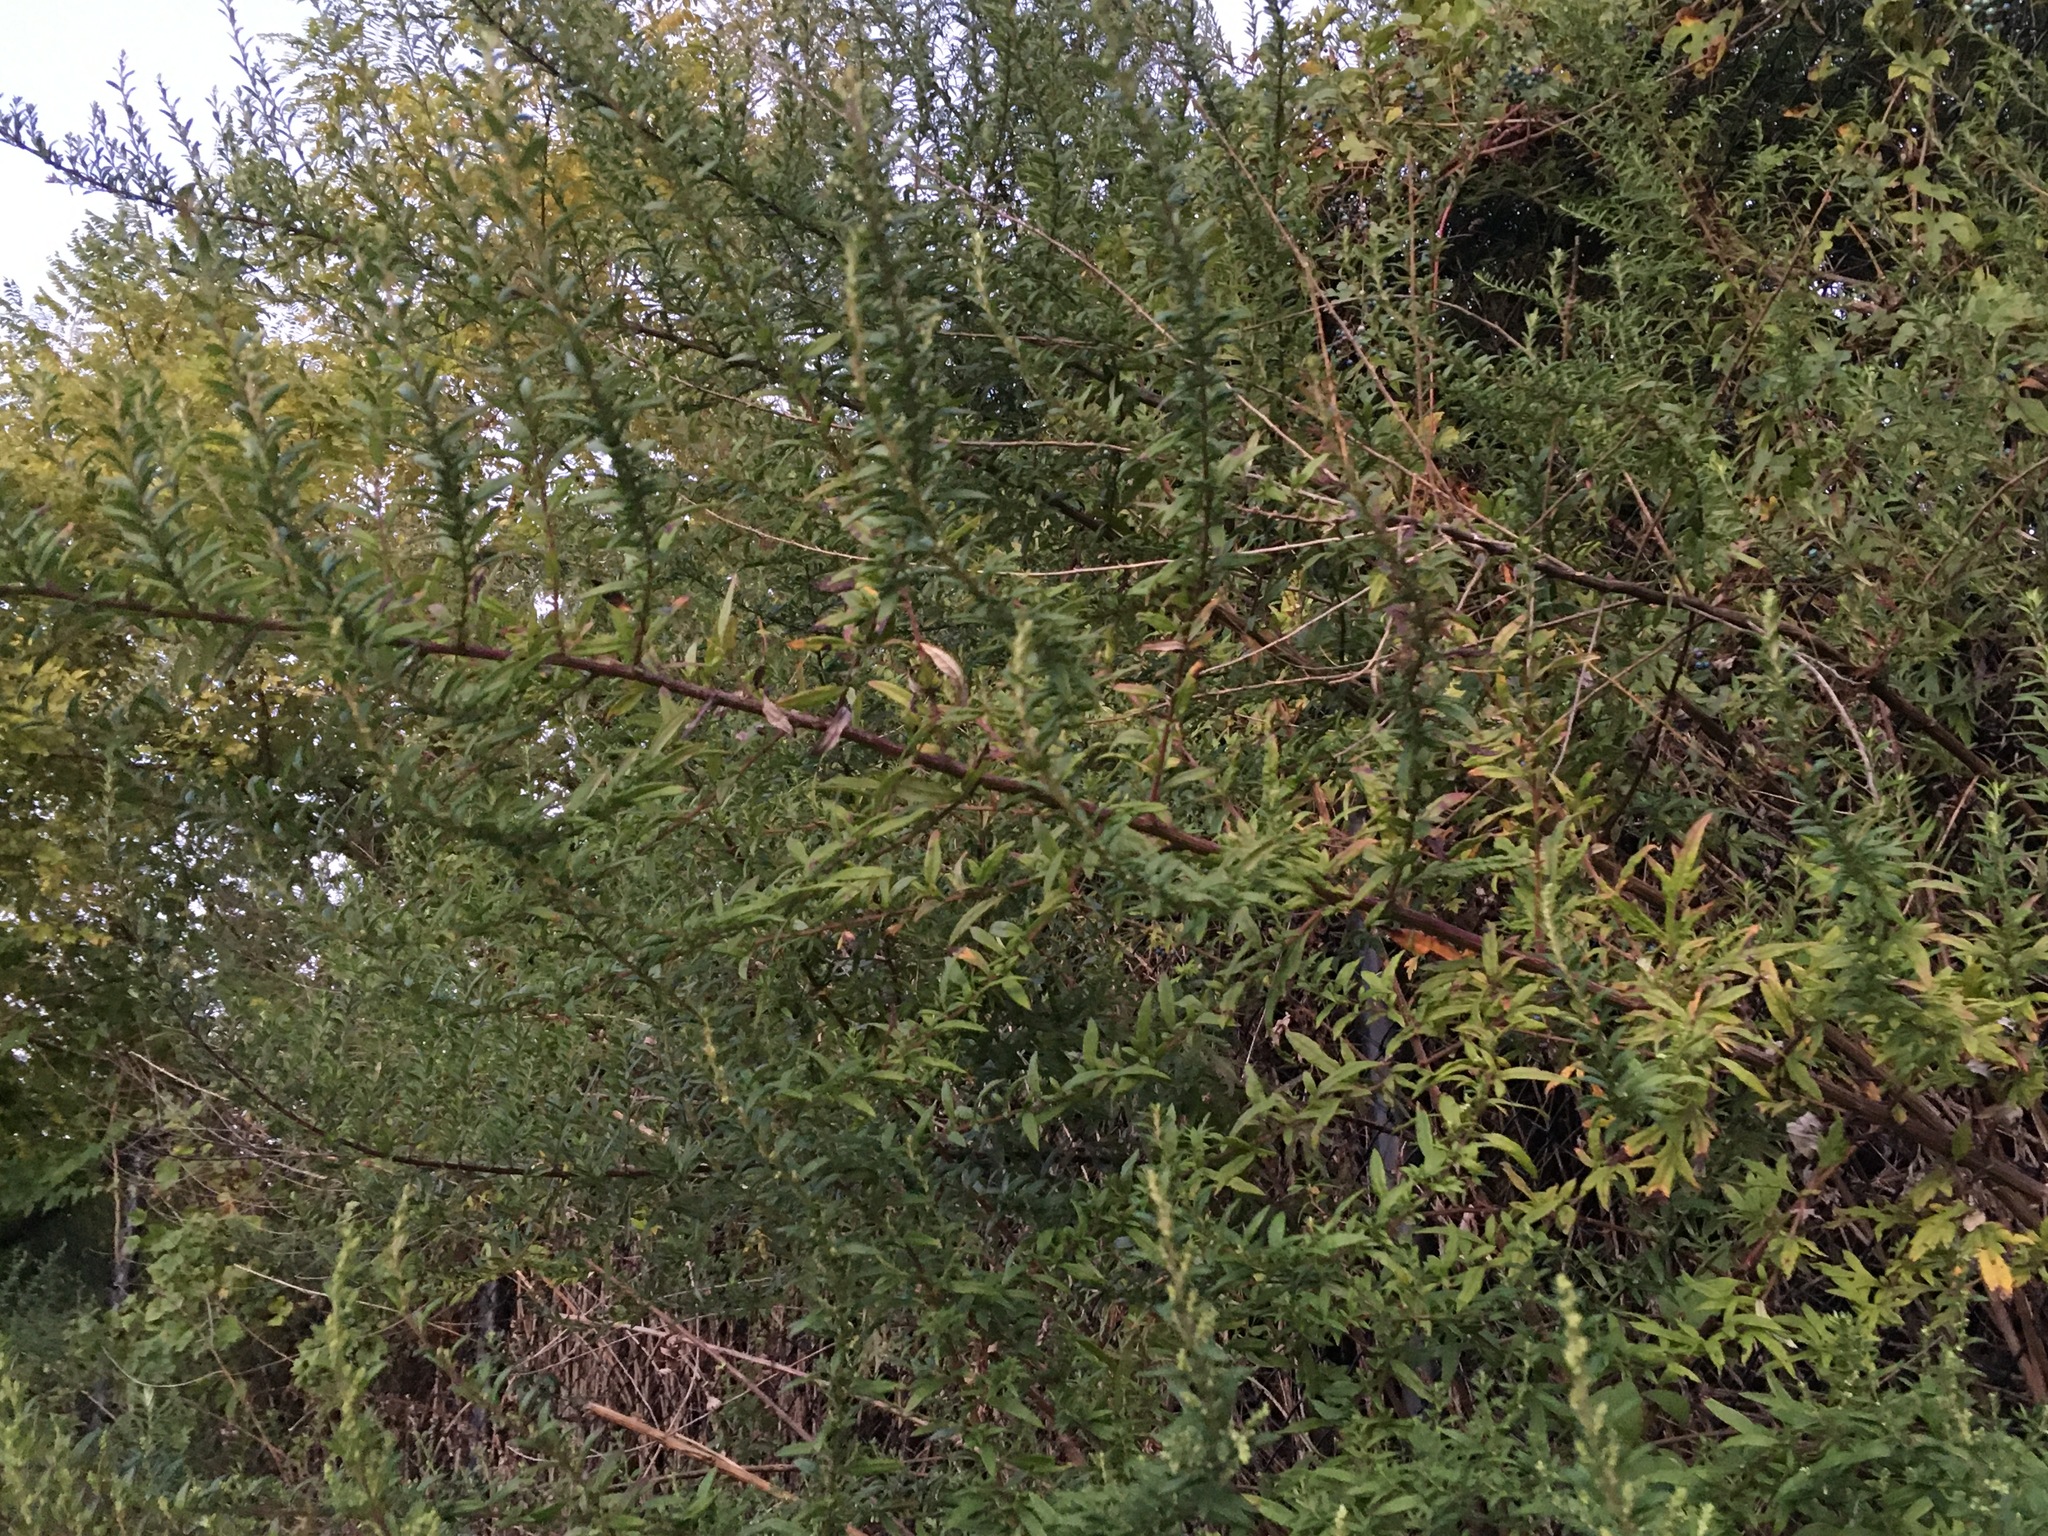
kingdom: Plantae
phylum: Tracheophyta
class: Magnoliopsida
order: Asterales
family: Asteraceae
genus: Artemisia
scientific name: Artemisia vulgaris
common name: Mugwort
